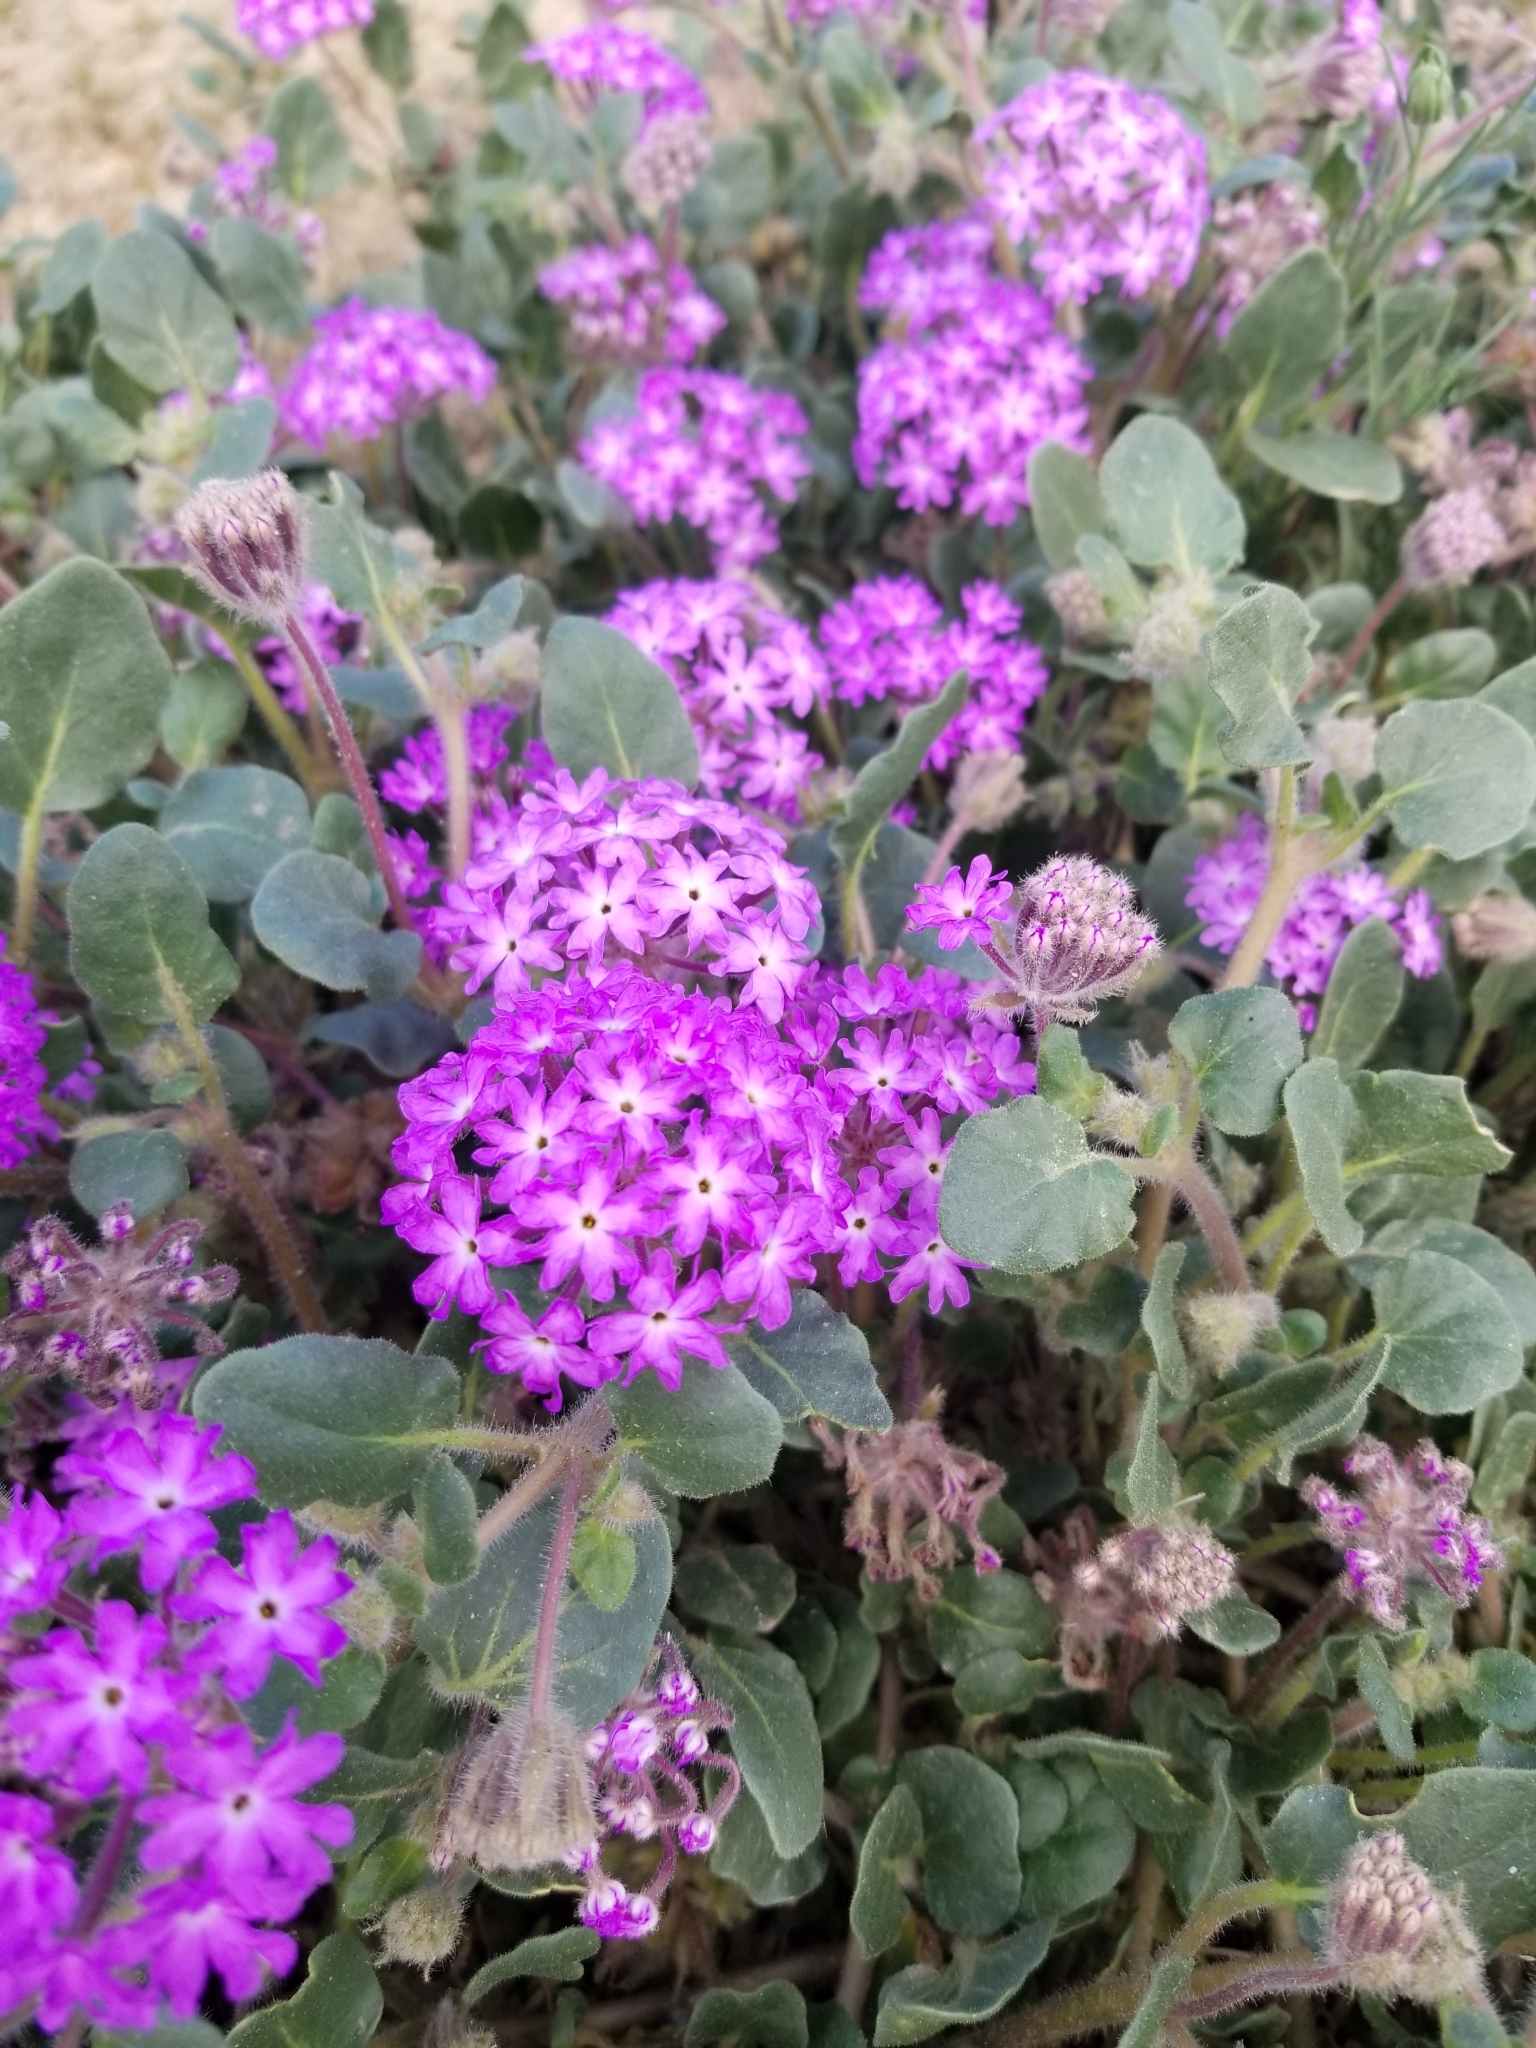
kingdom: Plantae
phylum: Tracheophyta
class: Magnoliopsida
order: Caryophyllales
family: Nyctaginaceae
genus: Abronia
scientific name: Abronia villosa
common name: Desert sand-verbena
